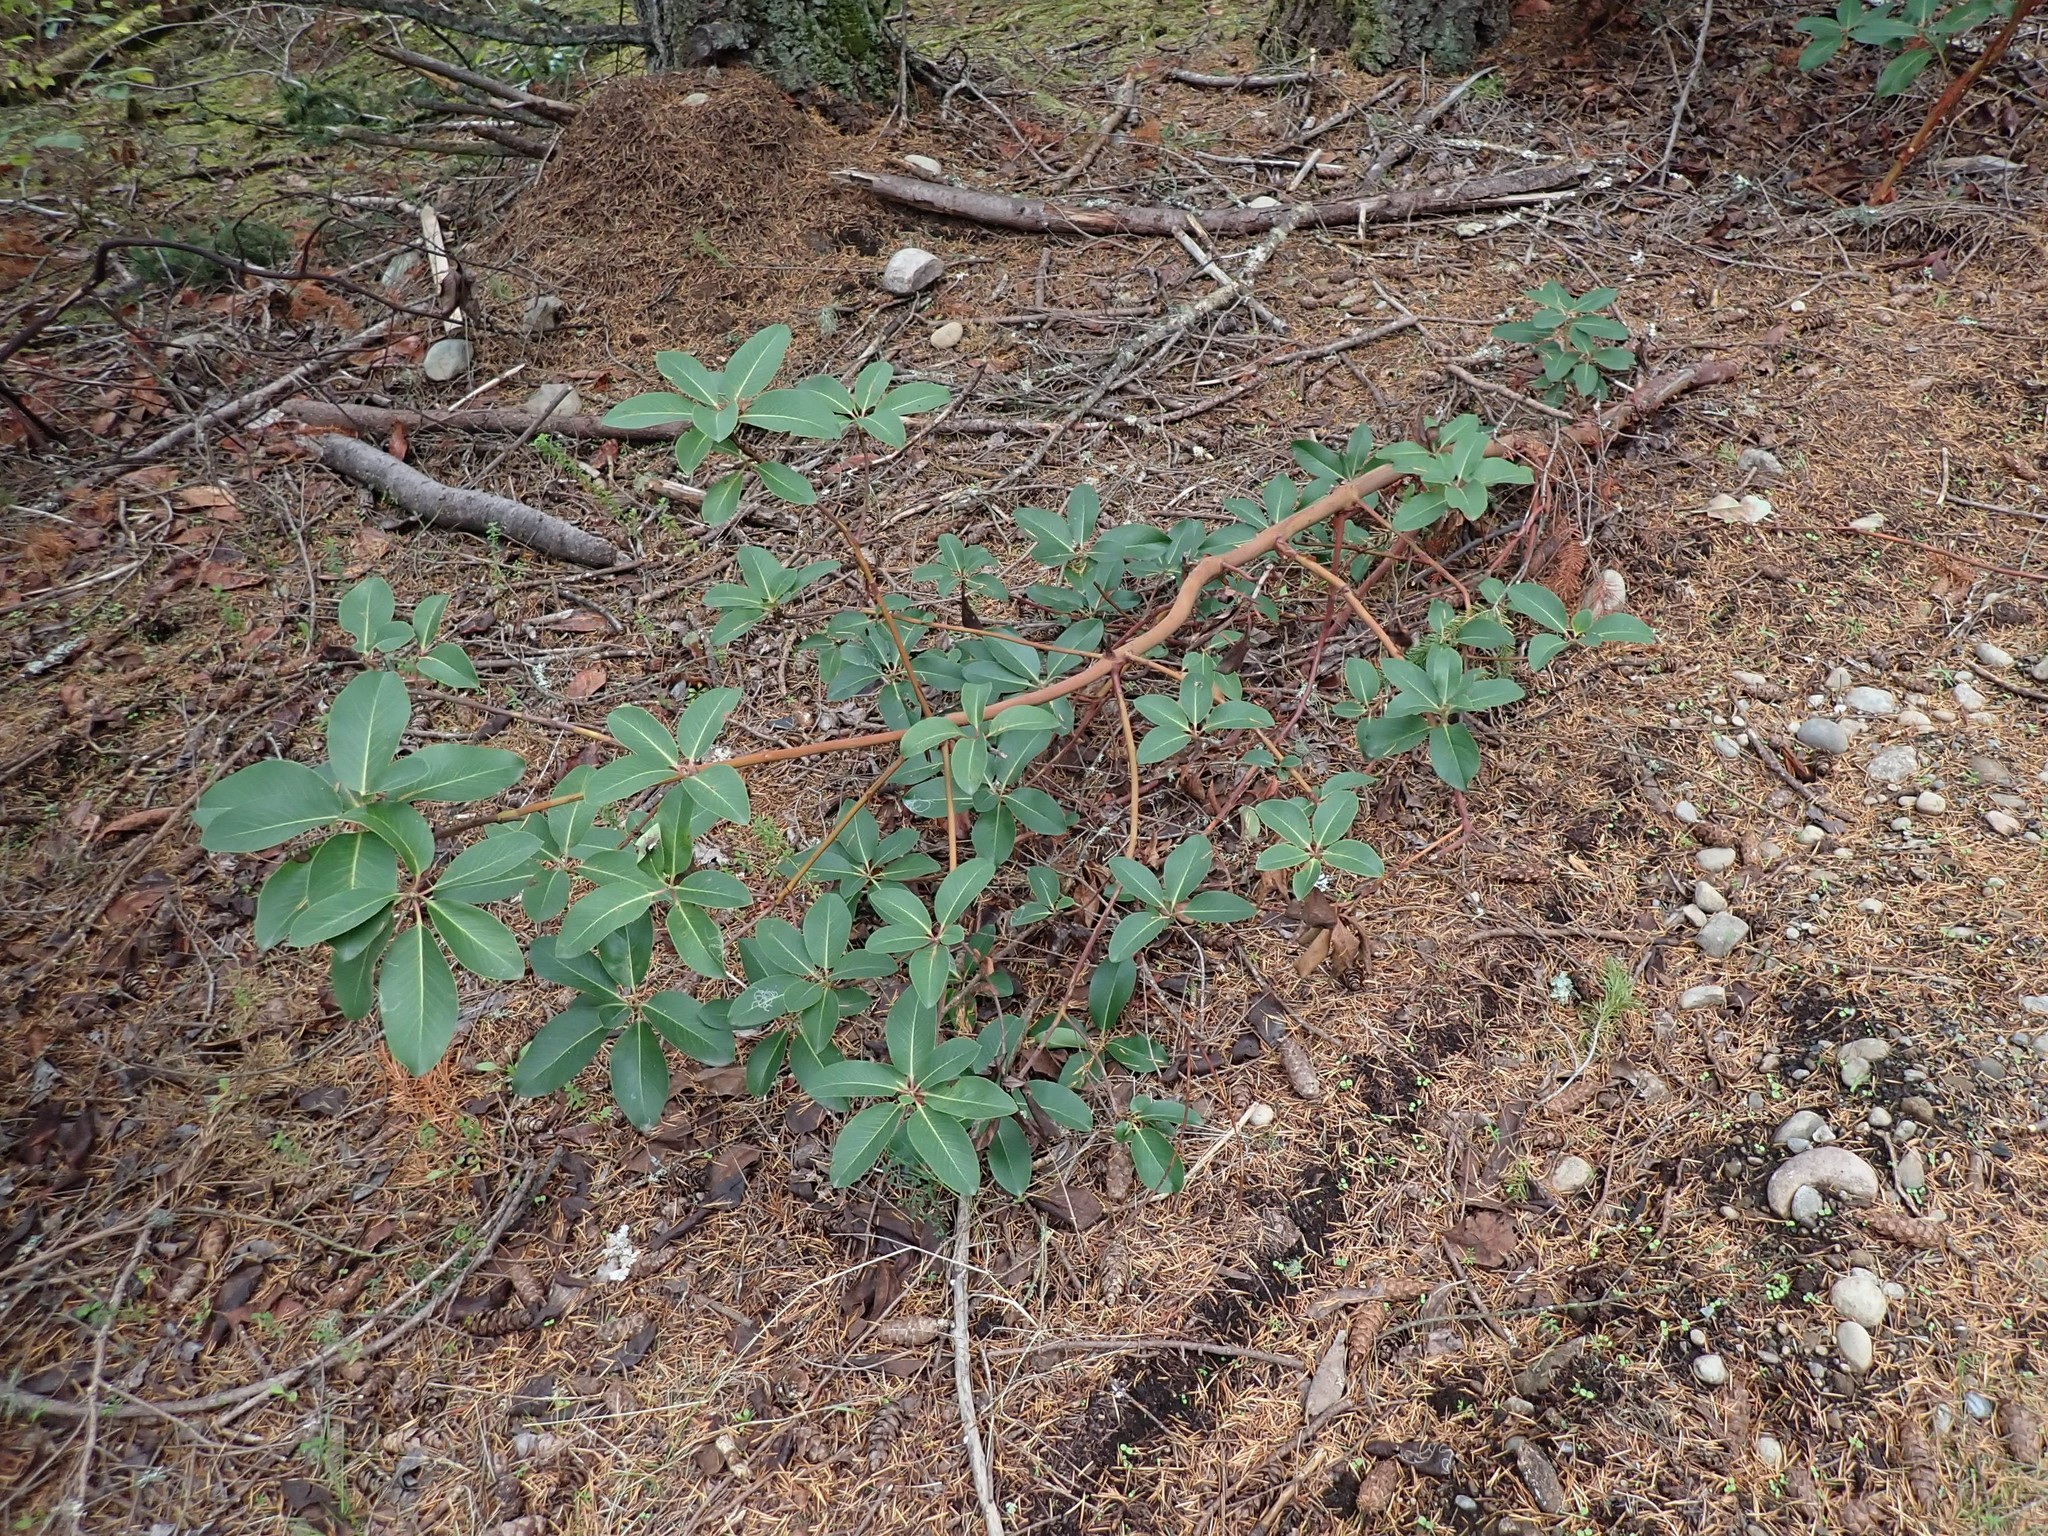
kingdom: Plantae
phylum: Tracheophyta
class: Magnoliopsida
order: Ericales
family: Ericaceae
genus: Arbutus
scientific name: Arbutus menziesii
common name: Pacific madrone
